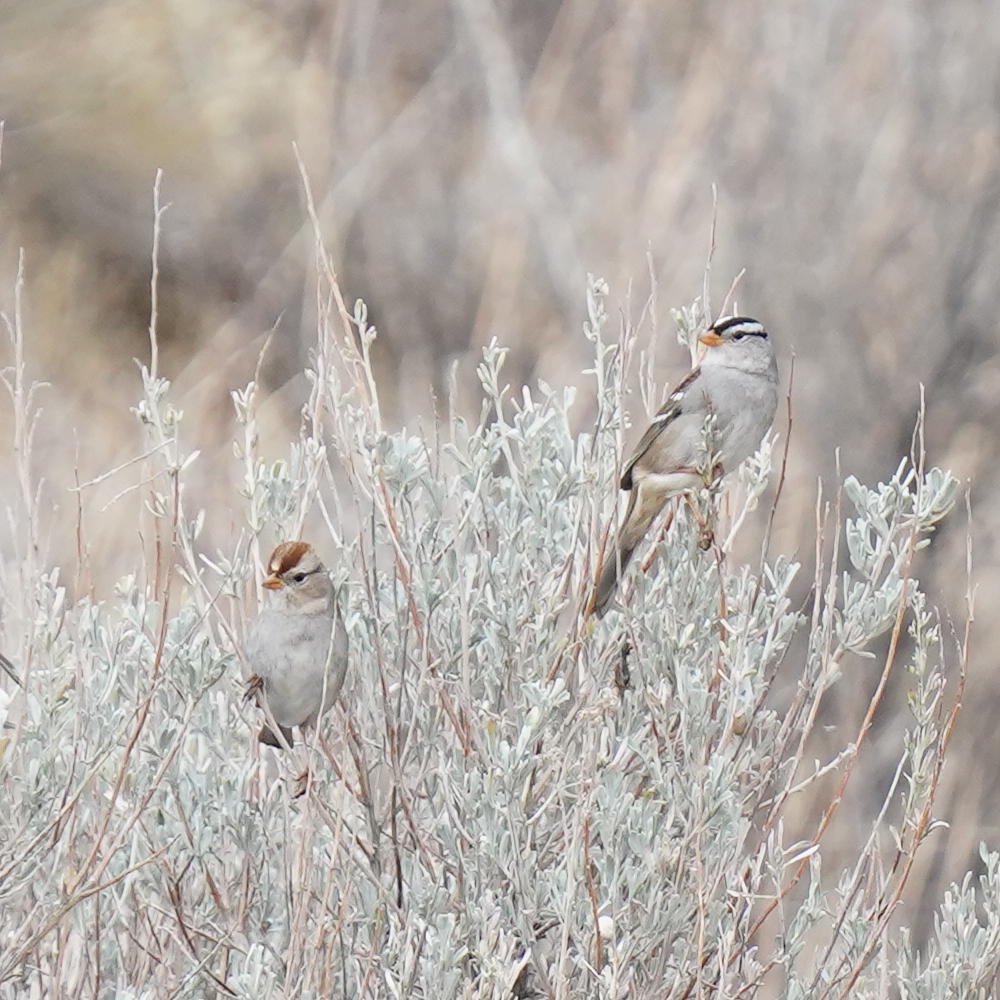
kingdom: Animalia
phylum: Chordata
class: Aves
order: Passeriformes
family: Passerellidae
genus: Zonotrichia
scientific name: Zonotrichia leucophrys
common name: White-crowned sparrow
